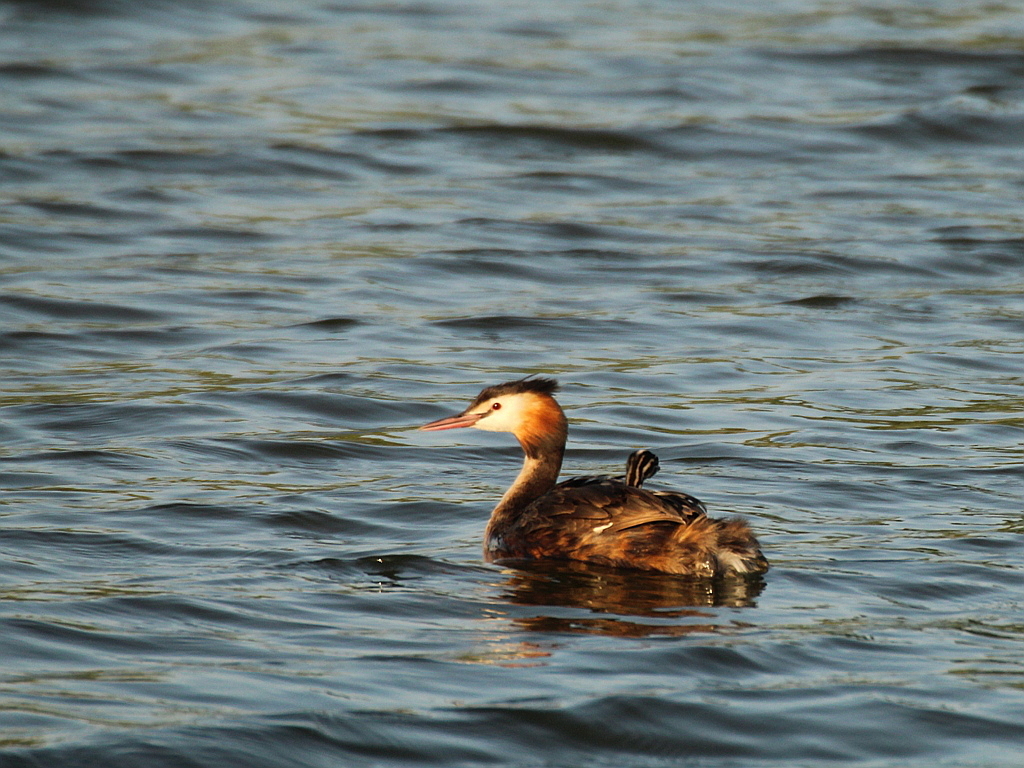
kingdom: Animalia
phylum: Chordata
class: Aves
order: Podicipediformes
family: Podicipedidae
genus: Podiceps
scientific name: Podiceps cristatus
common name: Great crested grebe
